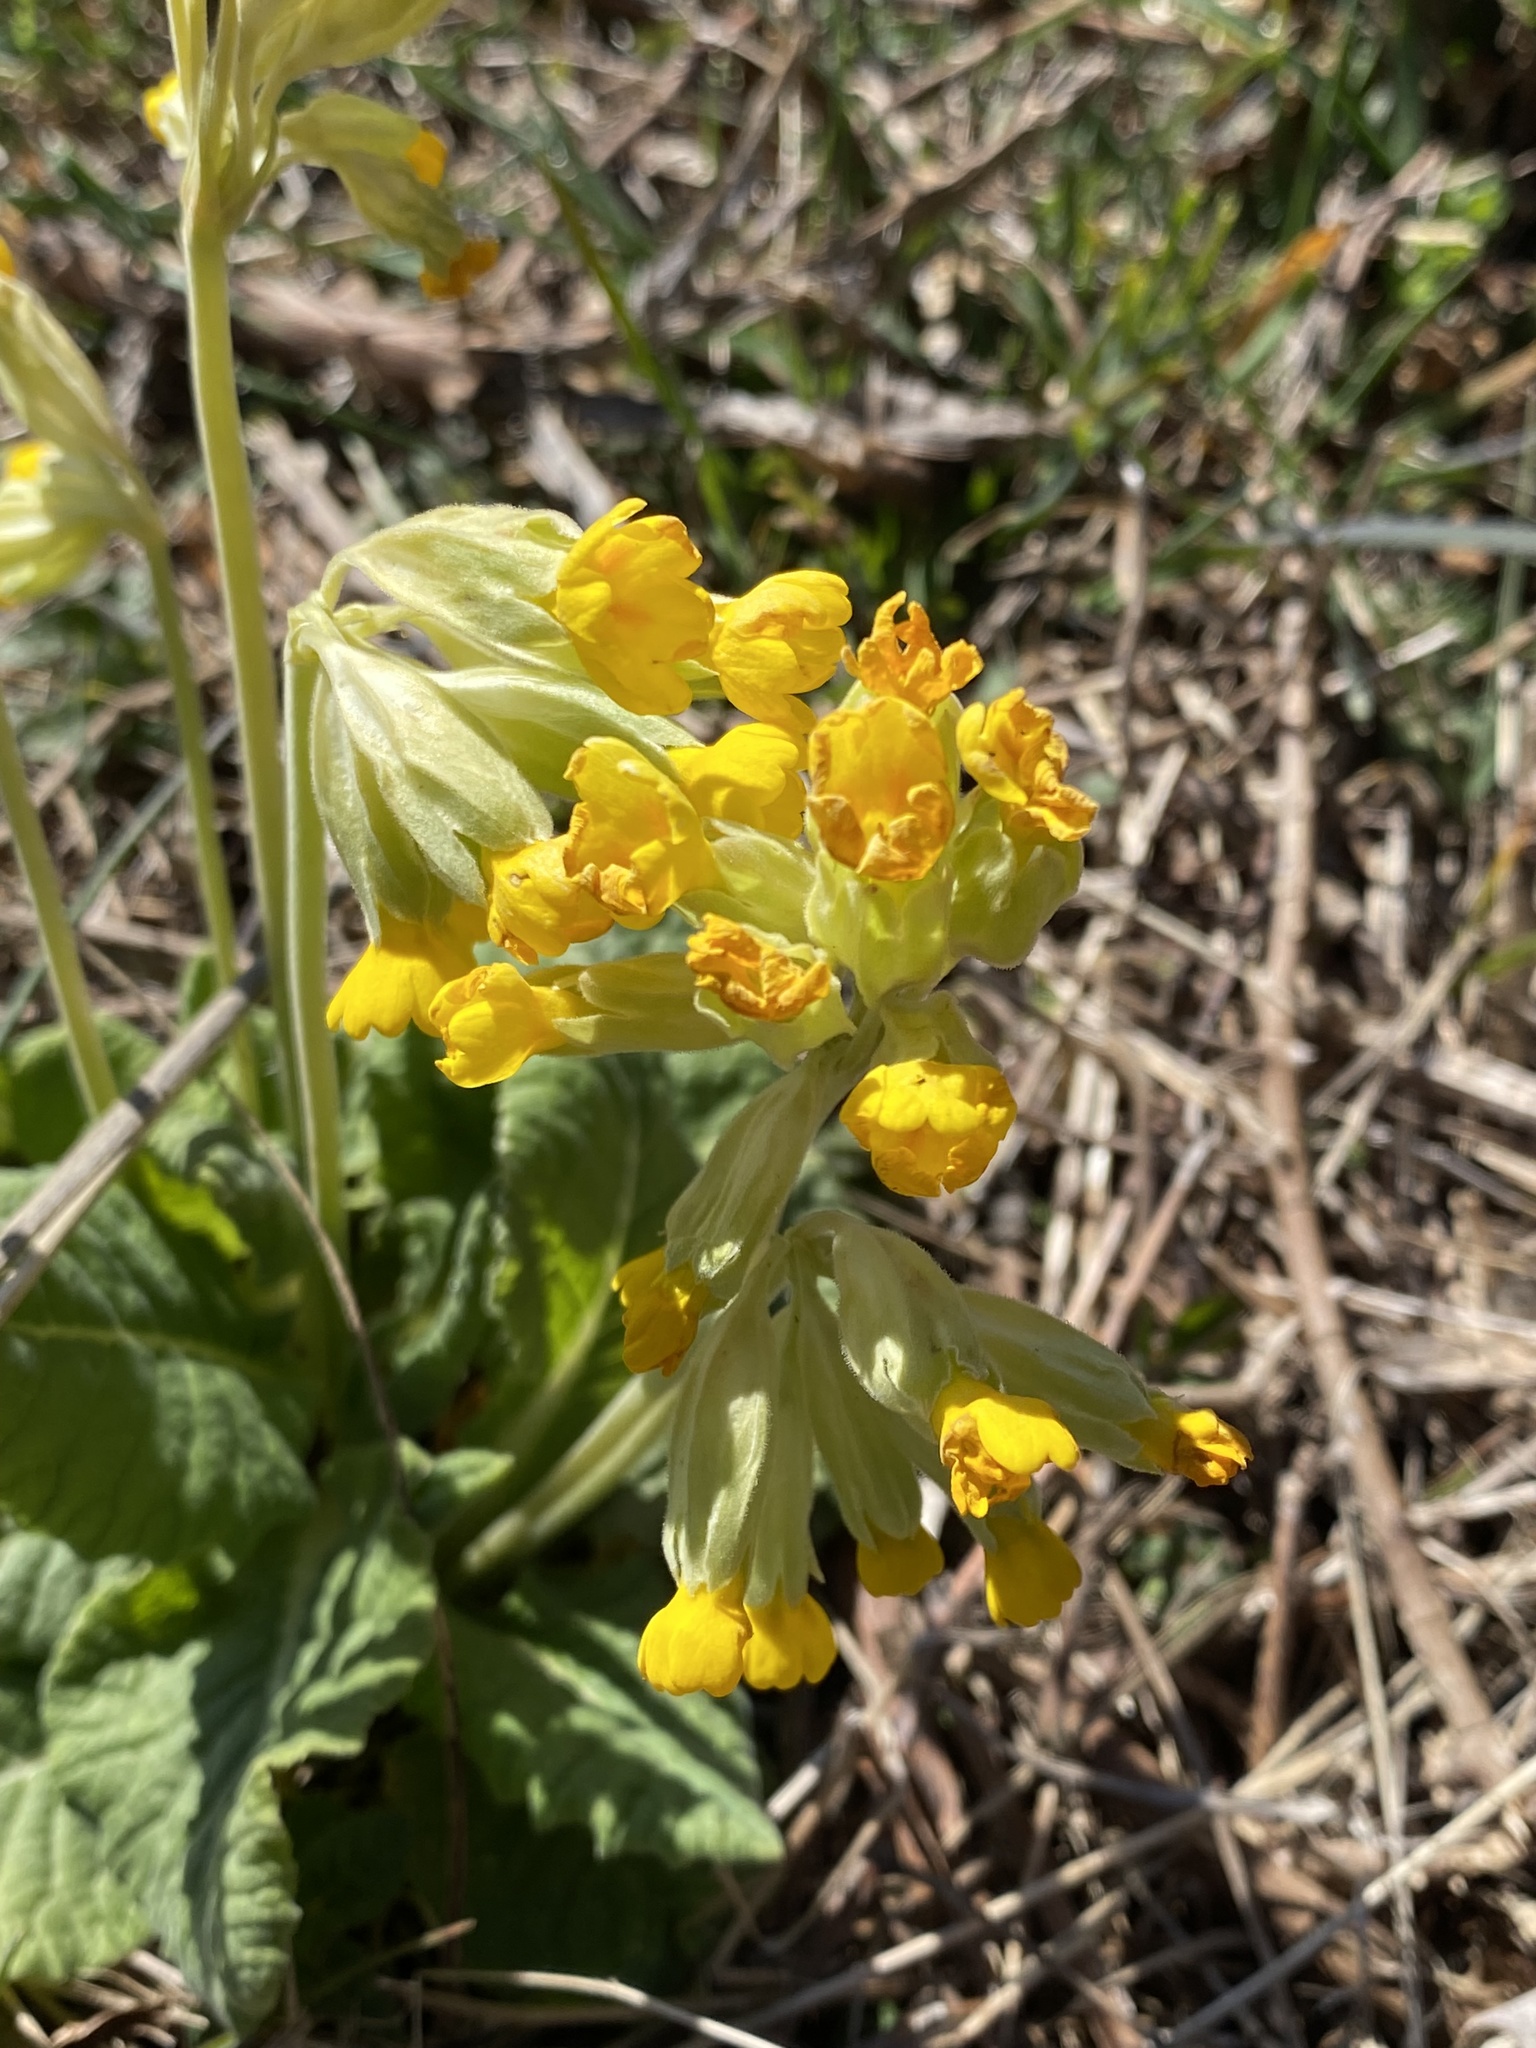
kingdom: Plantae
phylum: Tracheophyta
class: Magnoliopsida
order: Ericales
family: Primulaceae
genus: Primula
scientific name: Primula veris
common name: Cowslip
